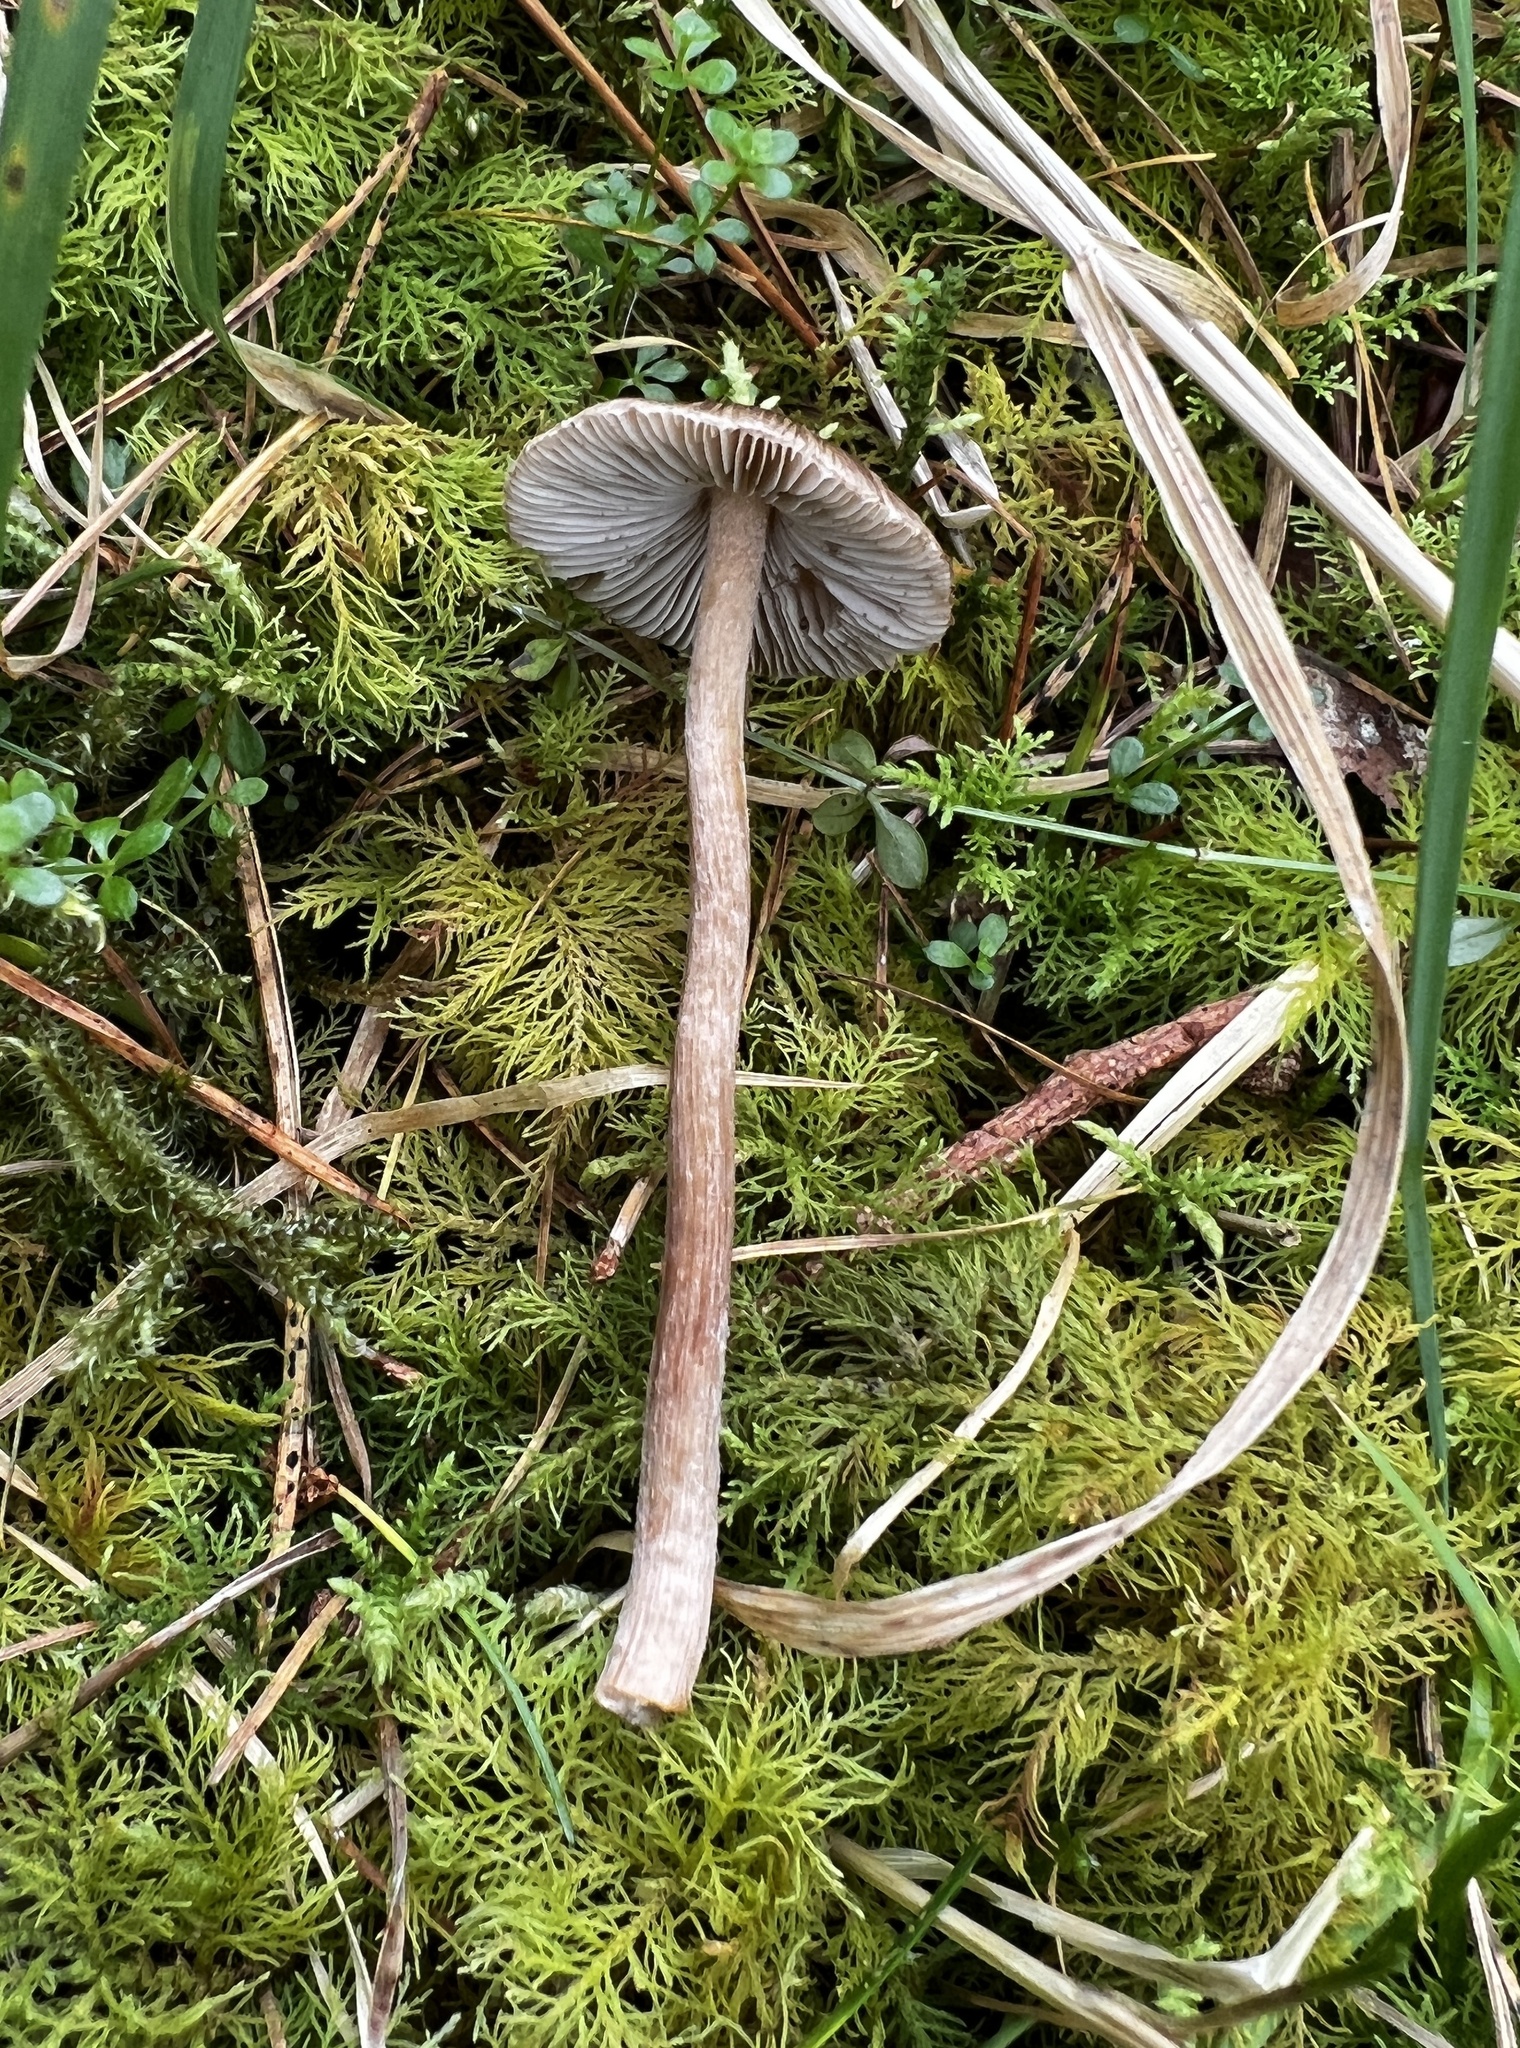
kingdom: Fungi
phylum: Basidiomycota
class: Agaricomycetes
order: Agaricales
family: Inocybaceae
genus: Inocybe
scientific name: Inocybe napipes
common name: Bulbous fibrecap
